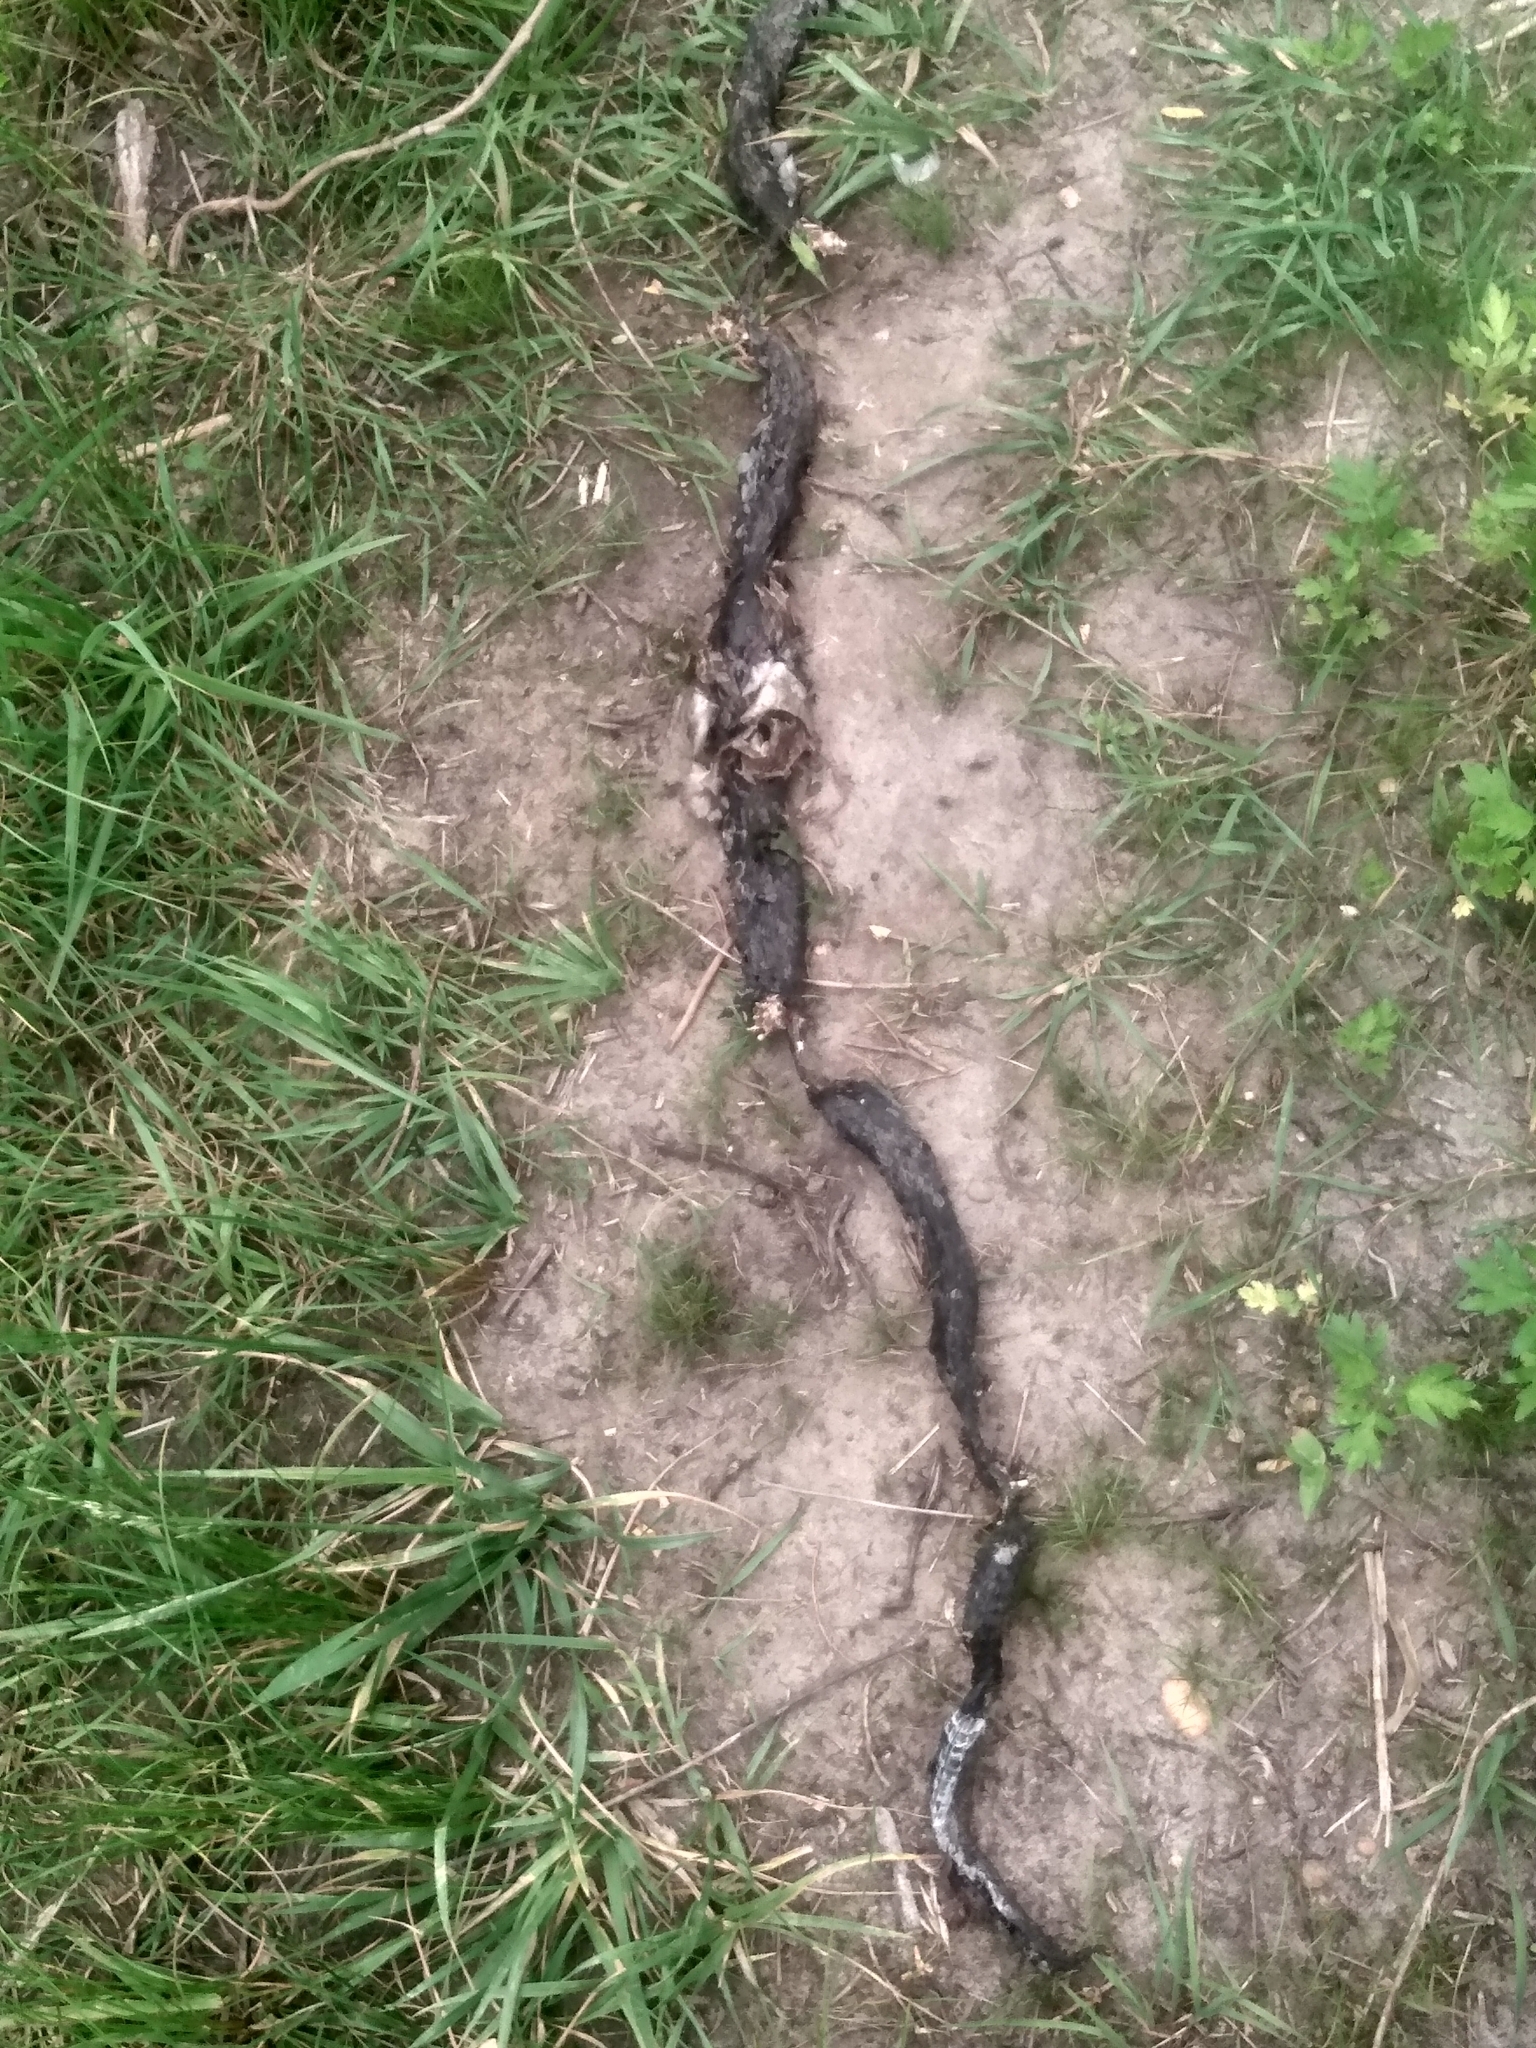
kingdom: Animalia
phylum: Chordata
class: Squamata
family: Colubridae
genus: Coluber
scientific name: Coluber constrictor
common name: Eastern racer
